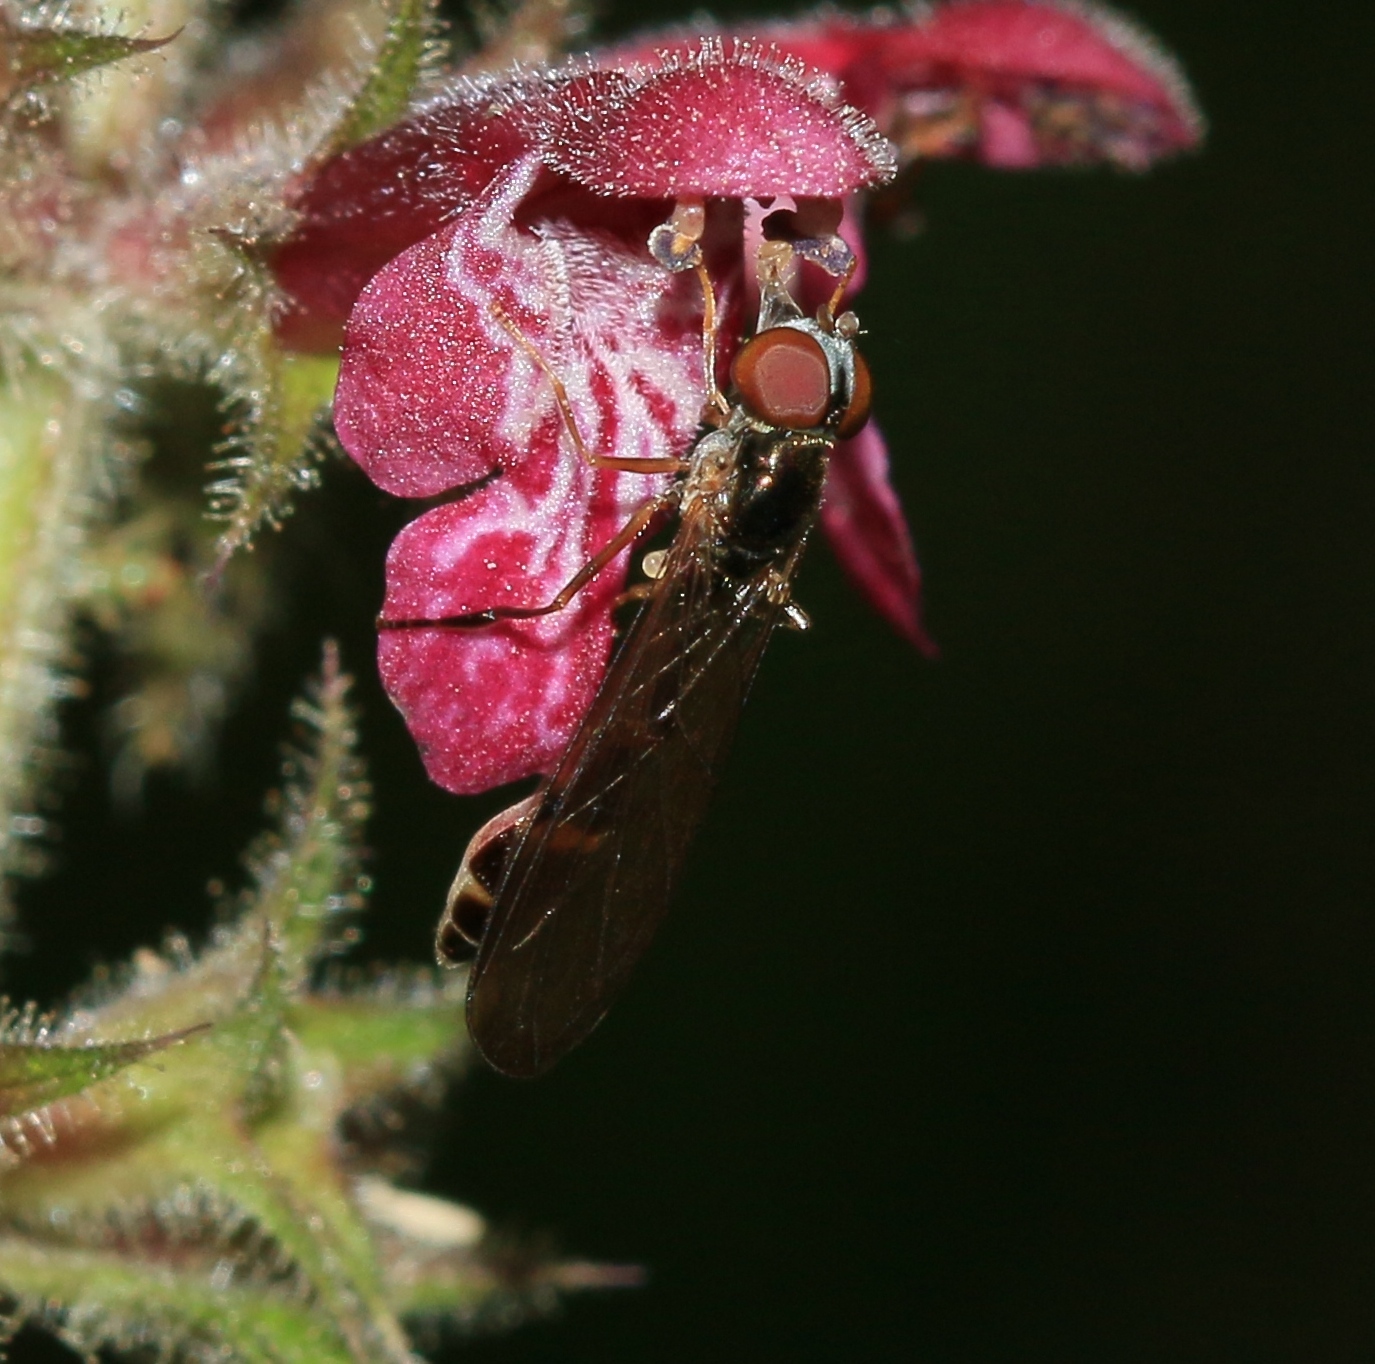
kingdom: Animalia
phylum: Arthropoda
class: Insecta
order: Diptera
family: Syrphidae
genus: Baccha
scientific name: Baccha elongata
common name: Common dainty
